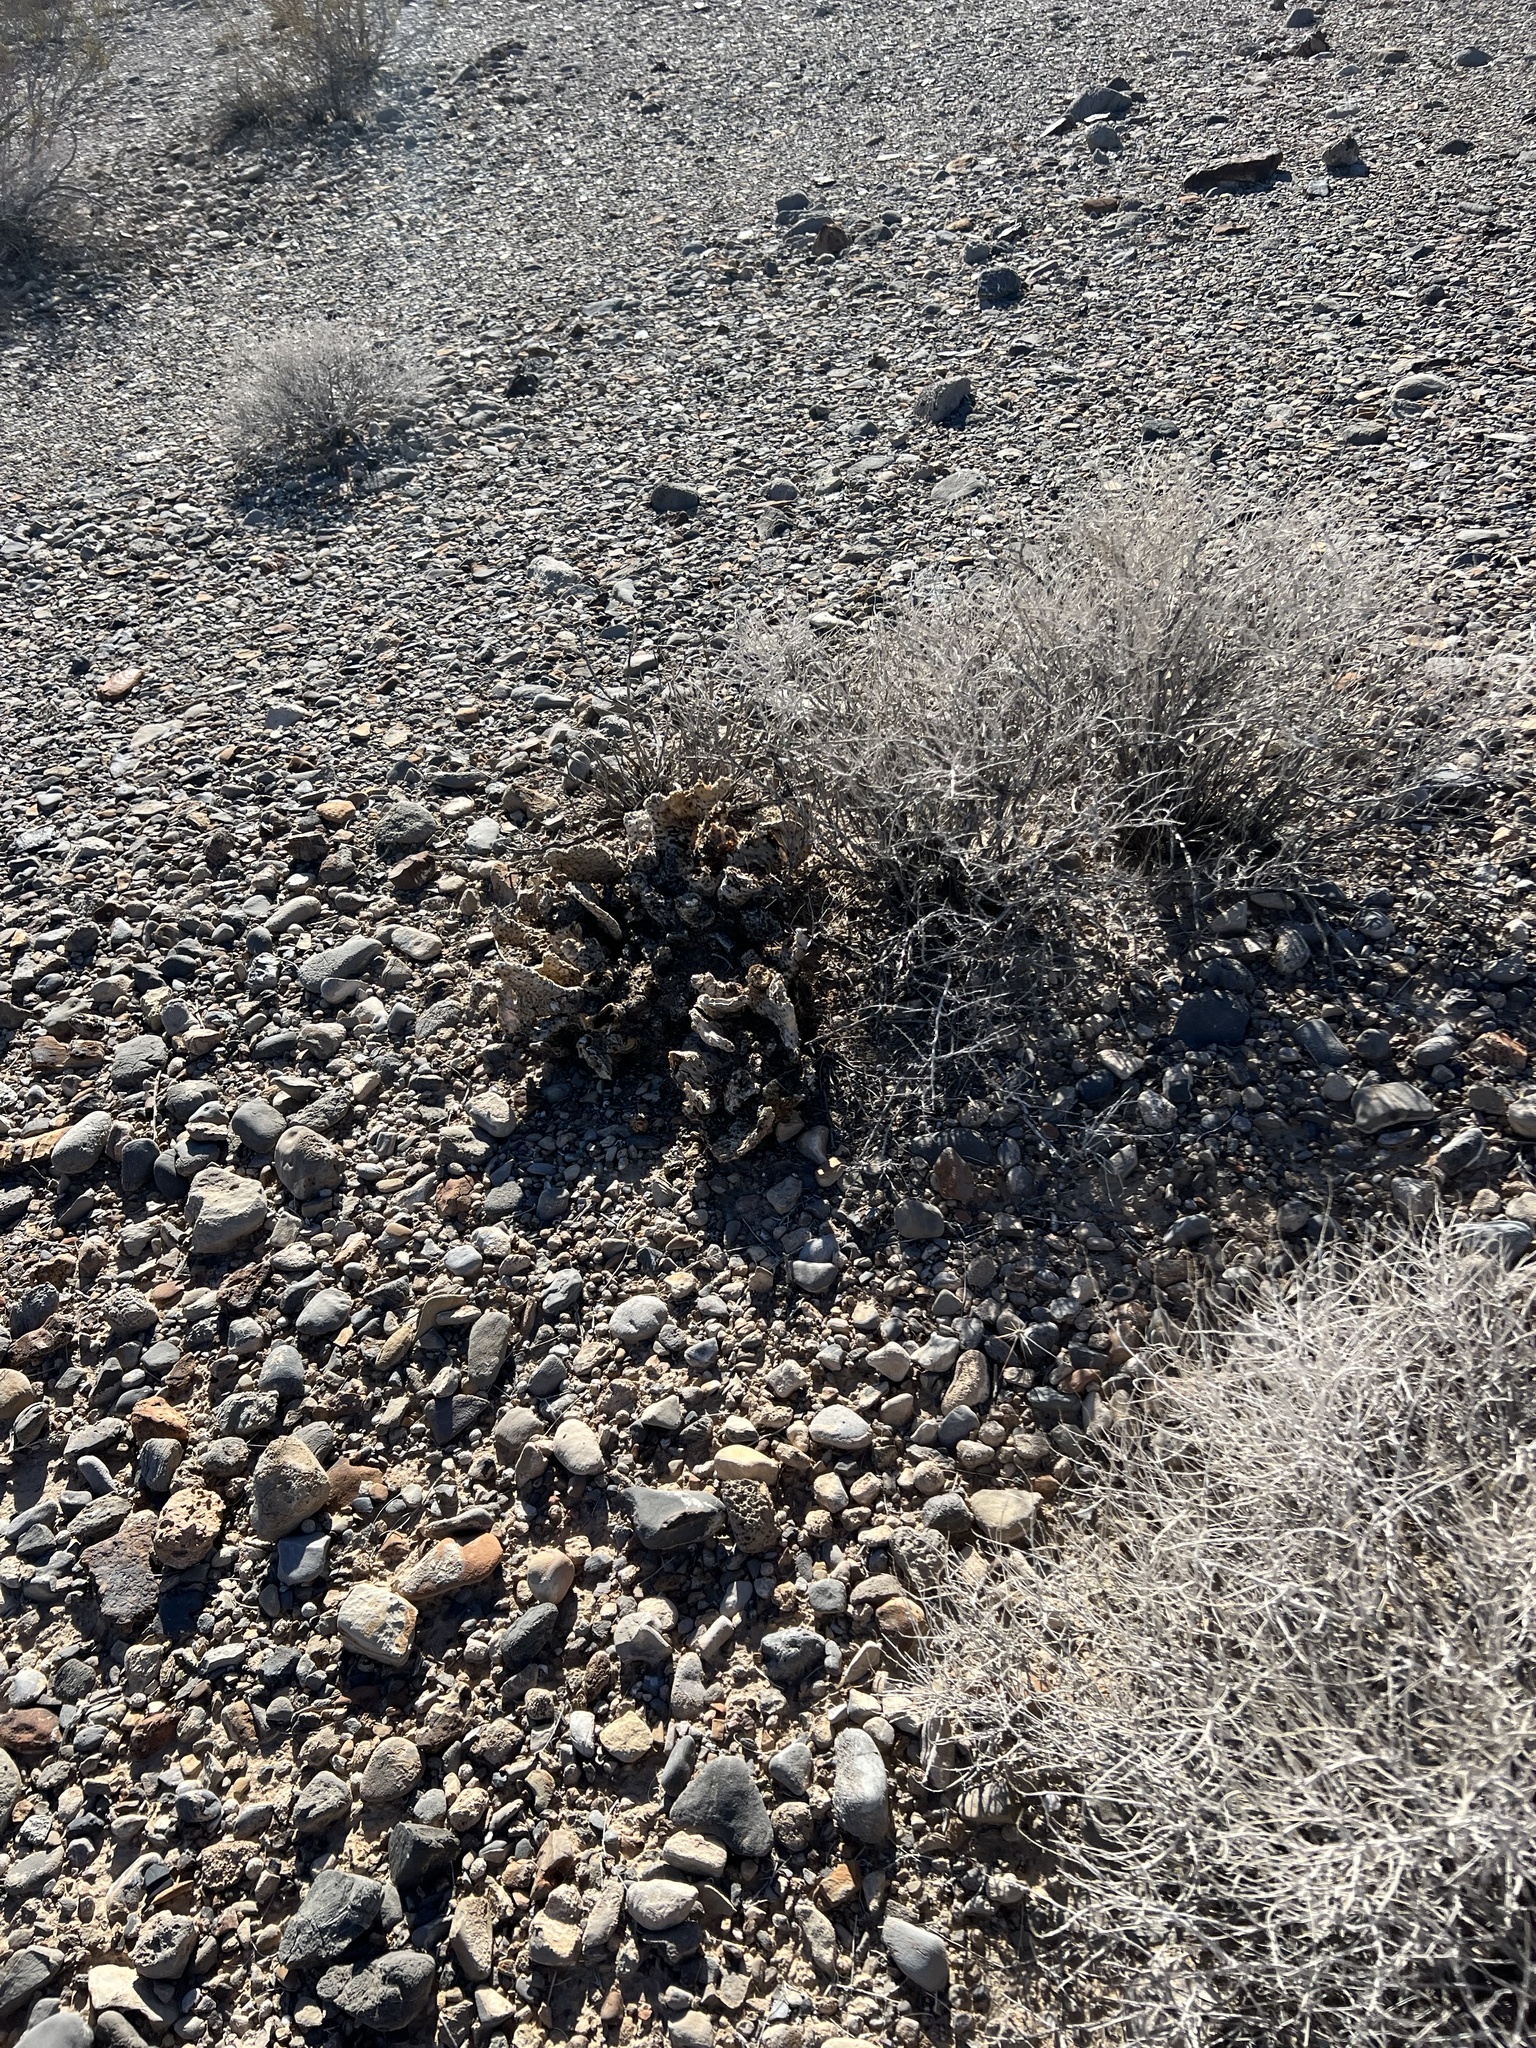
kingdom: Plantae
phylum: Tracheophyta
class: Magnoliopsida
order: Caryophyllales
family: Cactaceae
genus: Opuntia
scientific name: Opuntia basilaris
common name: Beavertail prickly-pear
